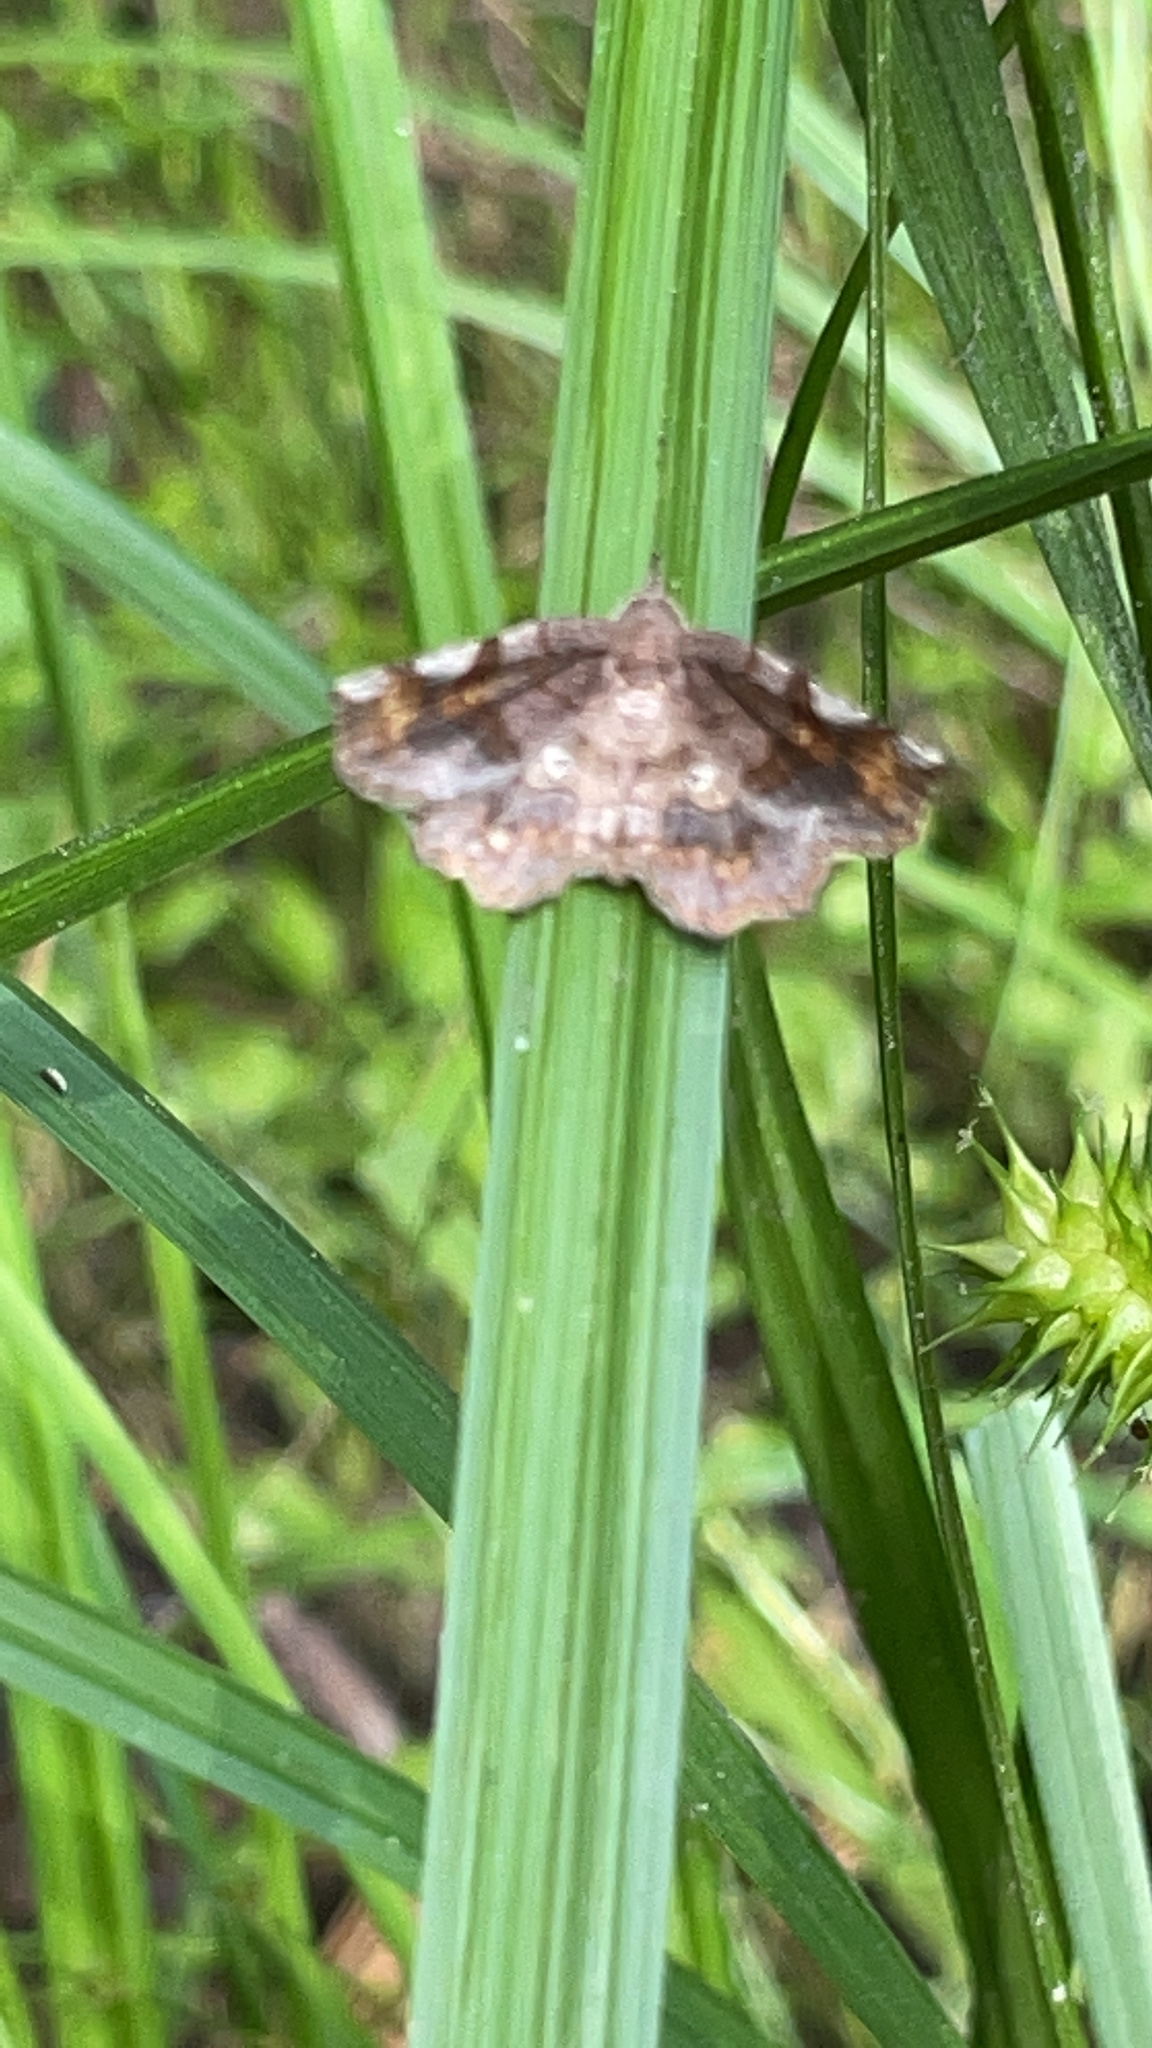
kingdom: Animalia
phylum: Arthropoda
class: Insecta
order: Lepidoptera
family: Erebidae
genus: Pangrapta
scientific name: Pangrapta decoralis
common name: Decorated owlet
